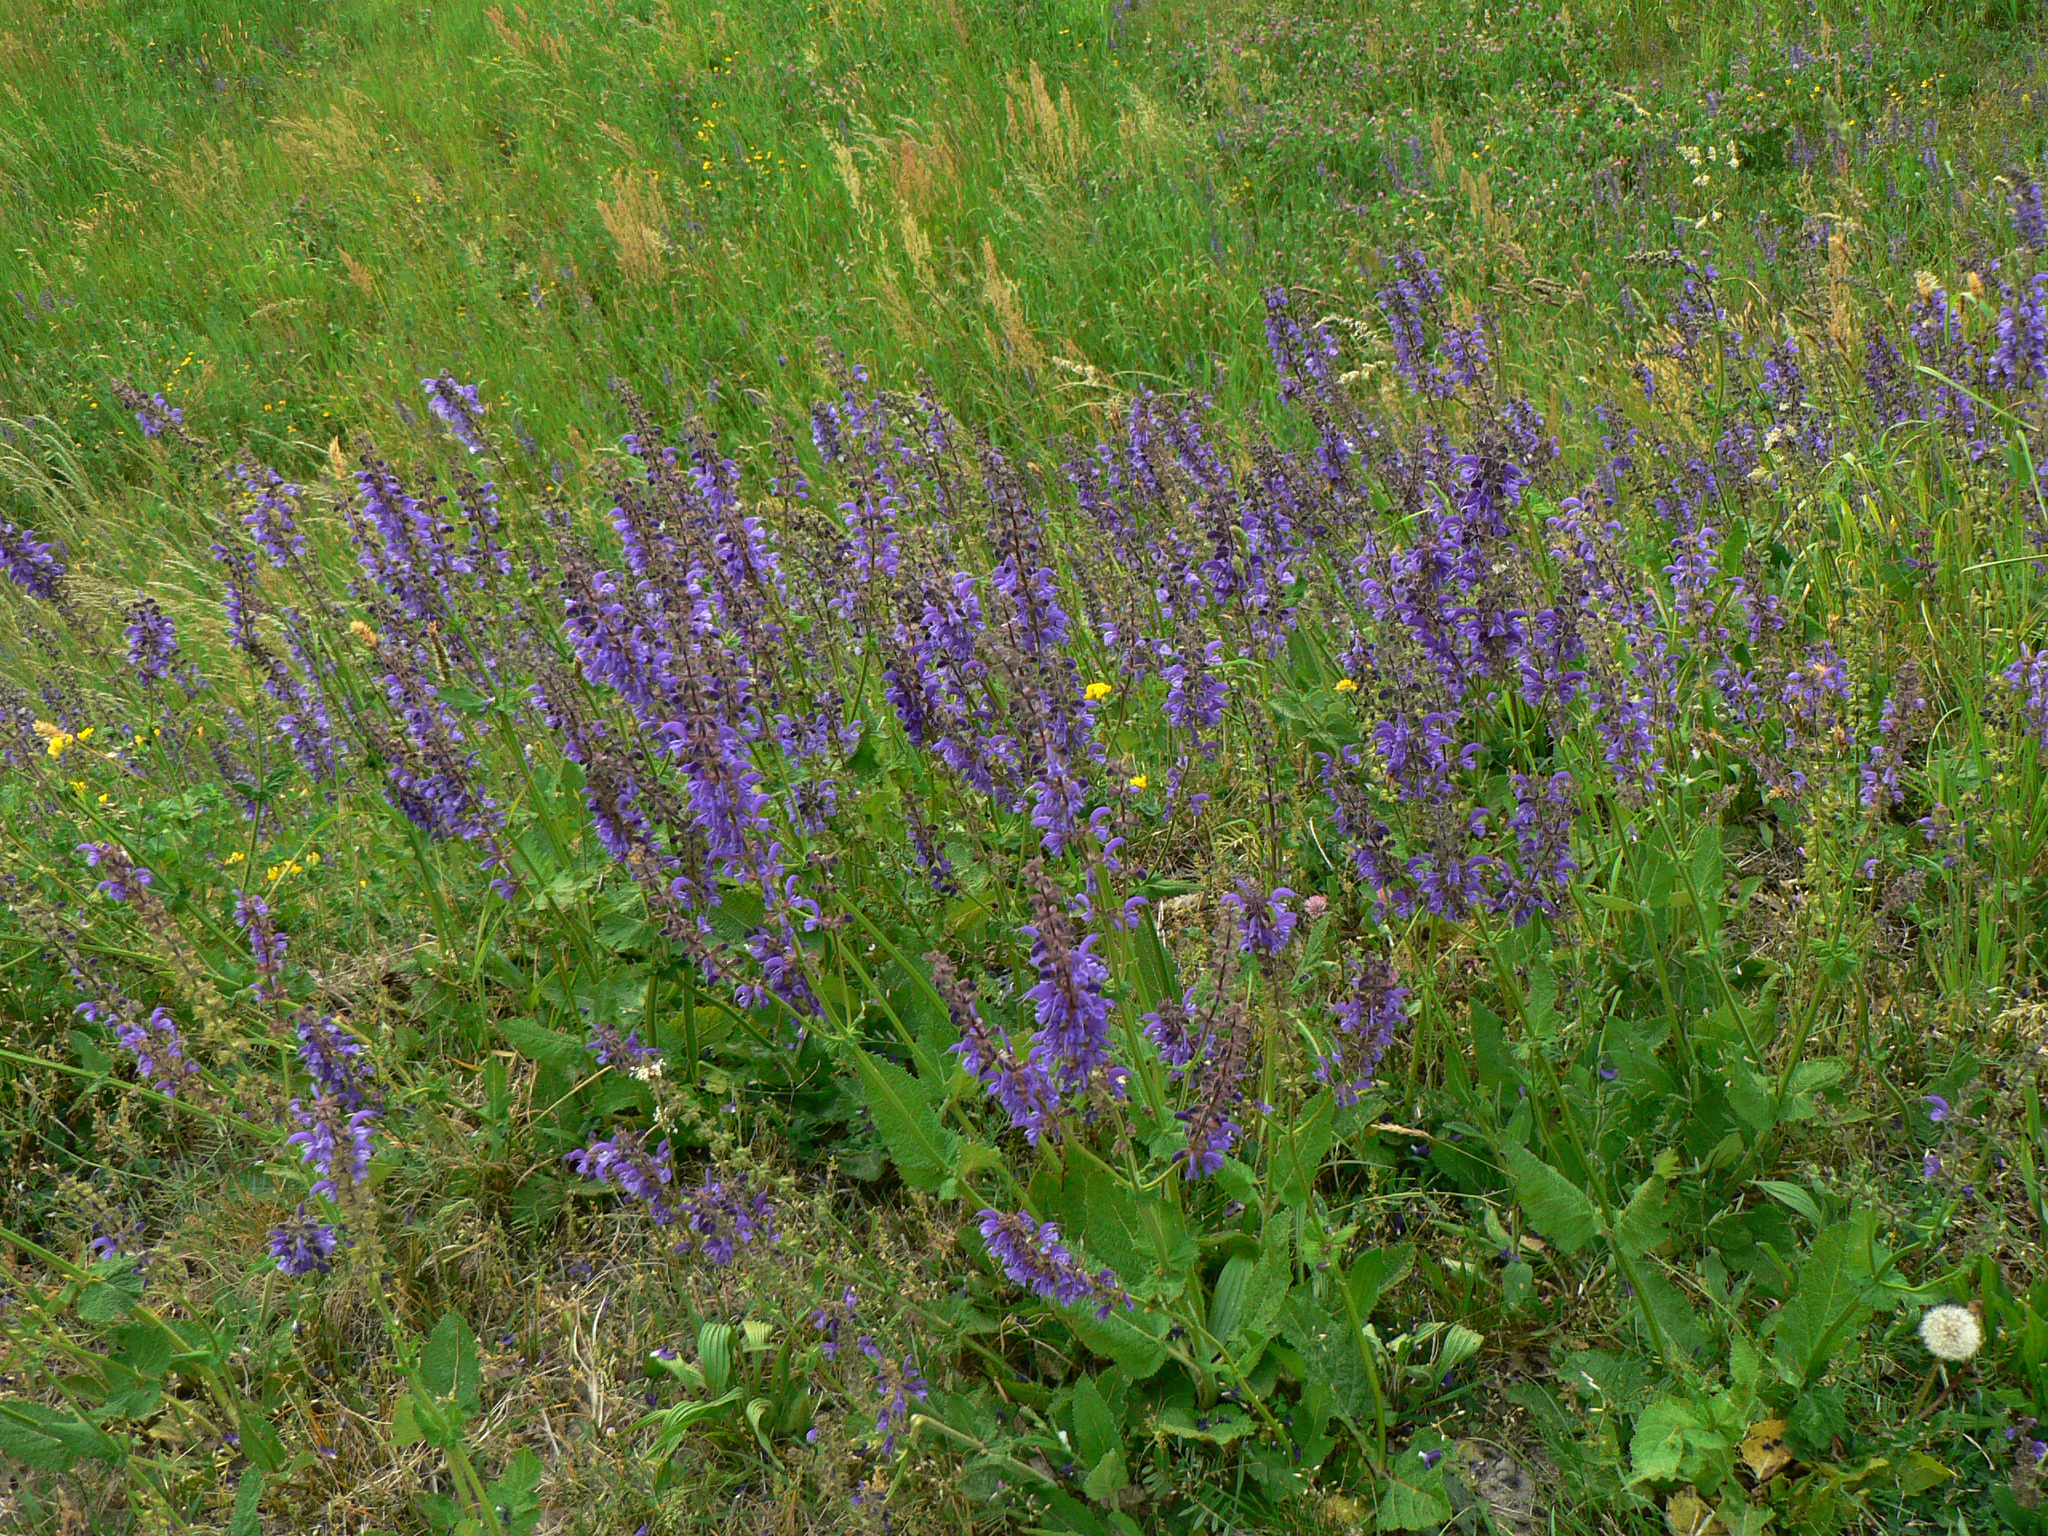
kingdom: Plantae
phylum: Tracheophyta
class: Magnoliopsida
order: Lamiales
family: Lamiaceae
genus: Salvia
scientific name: Salvia pratensis
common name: Meadow sage
